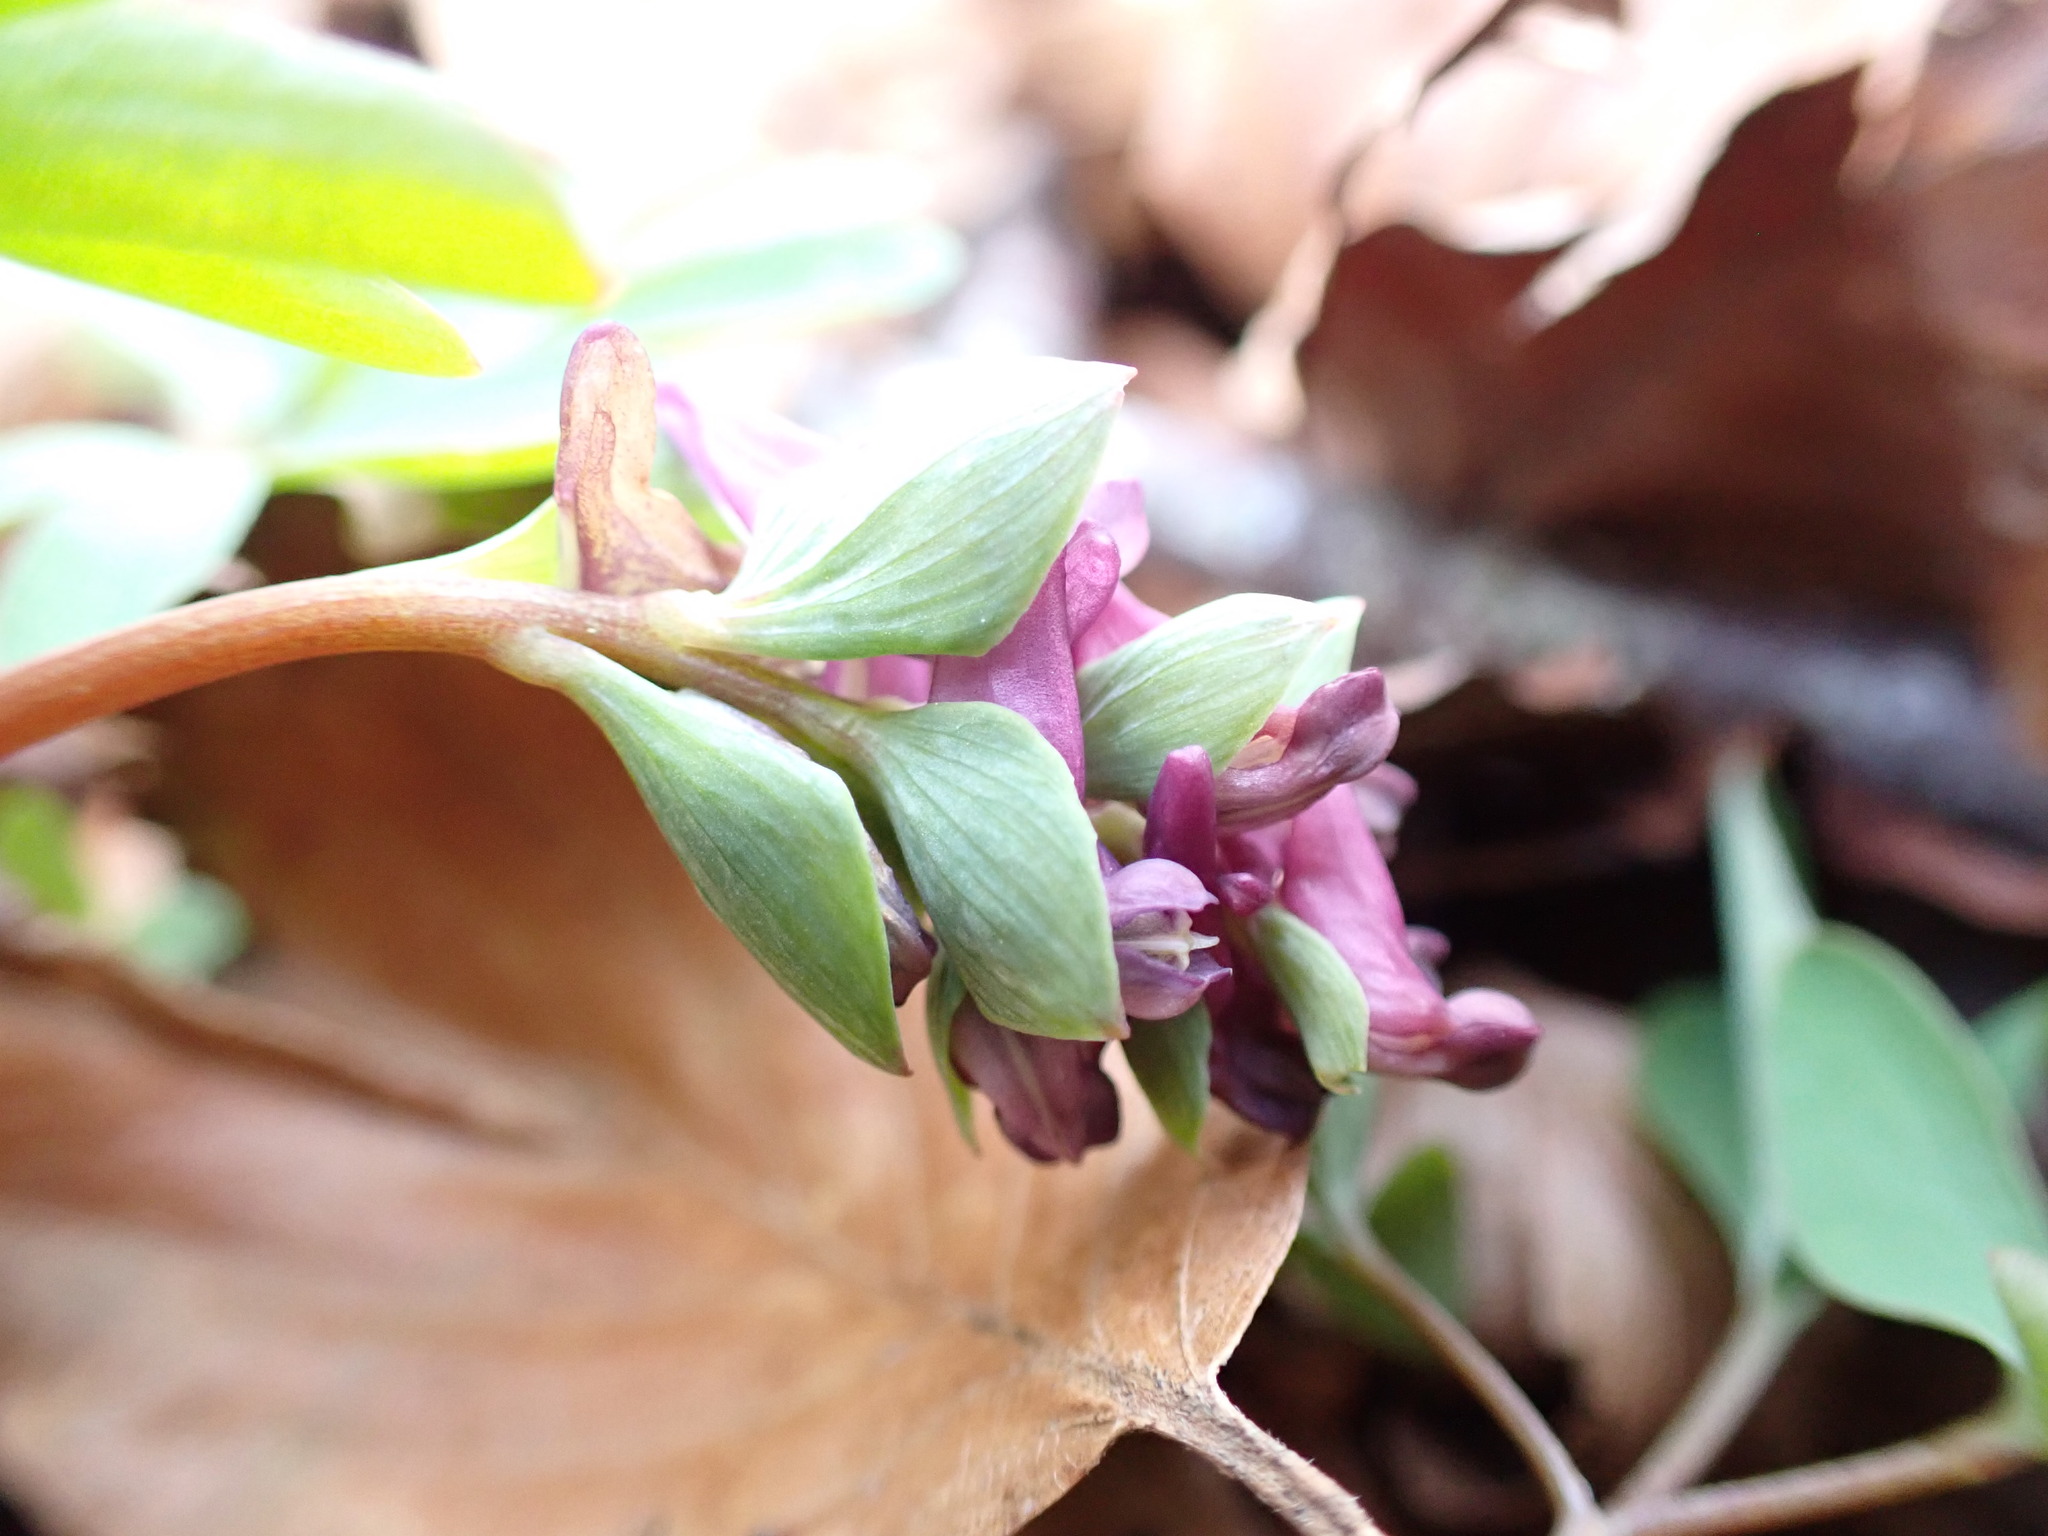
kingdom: Plantae
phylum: Tracheophyta
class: Magnoliopsida
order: Ranunculales
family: Papaveraceae
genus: Corydalis
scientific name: Corydalis cava
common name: Hollowroot
